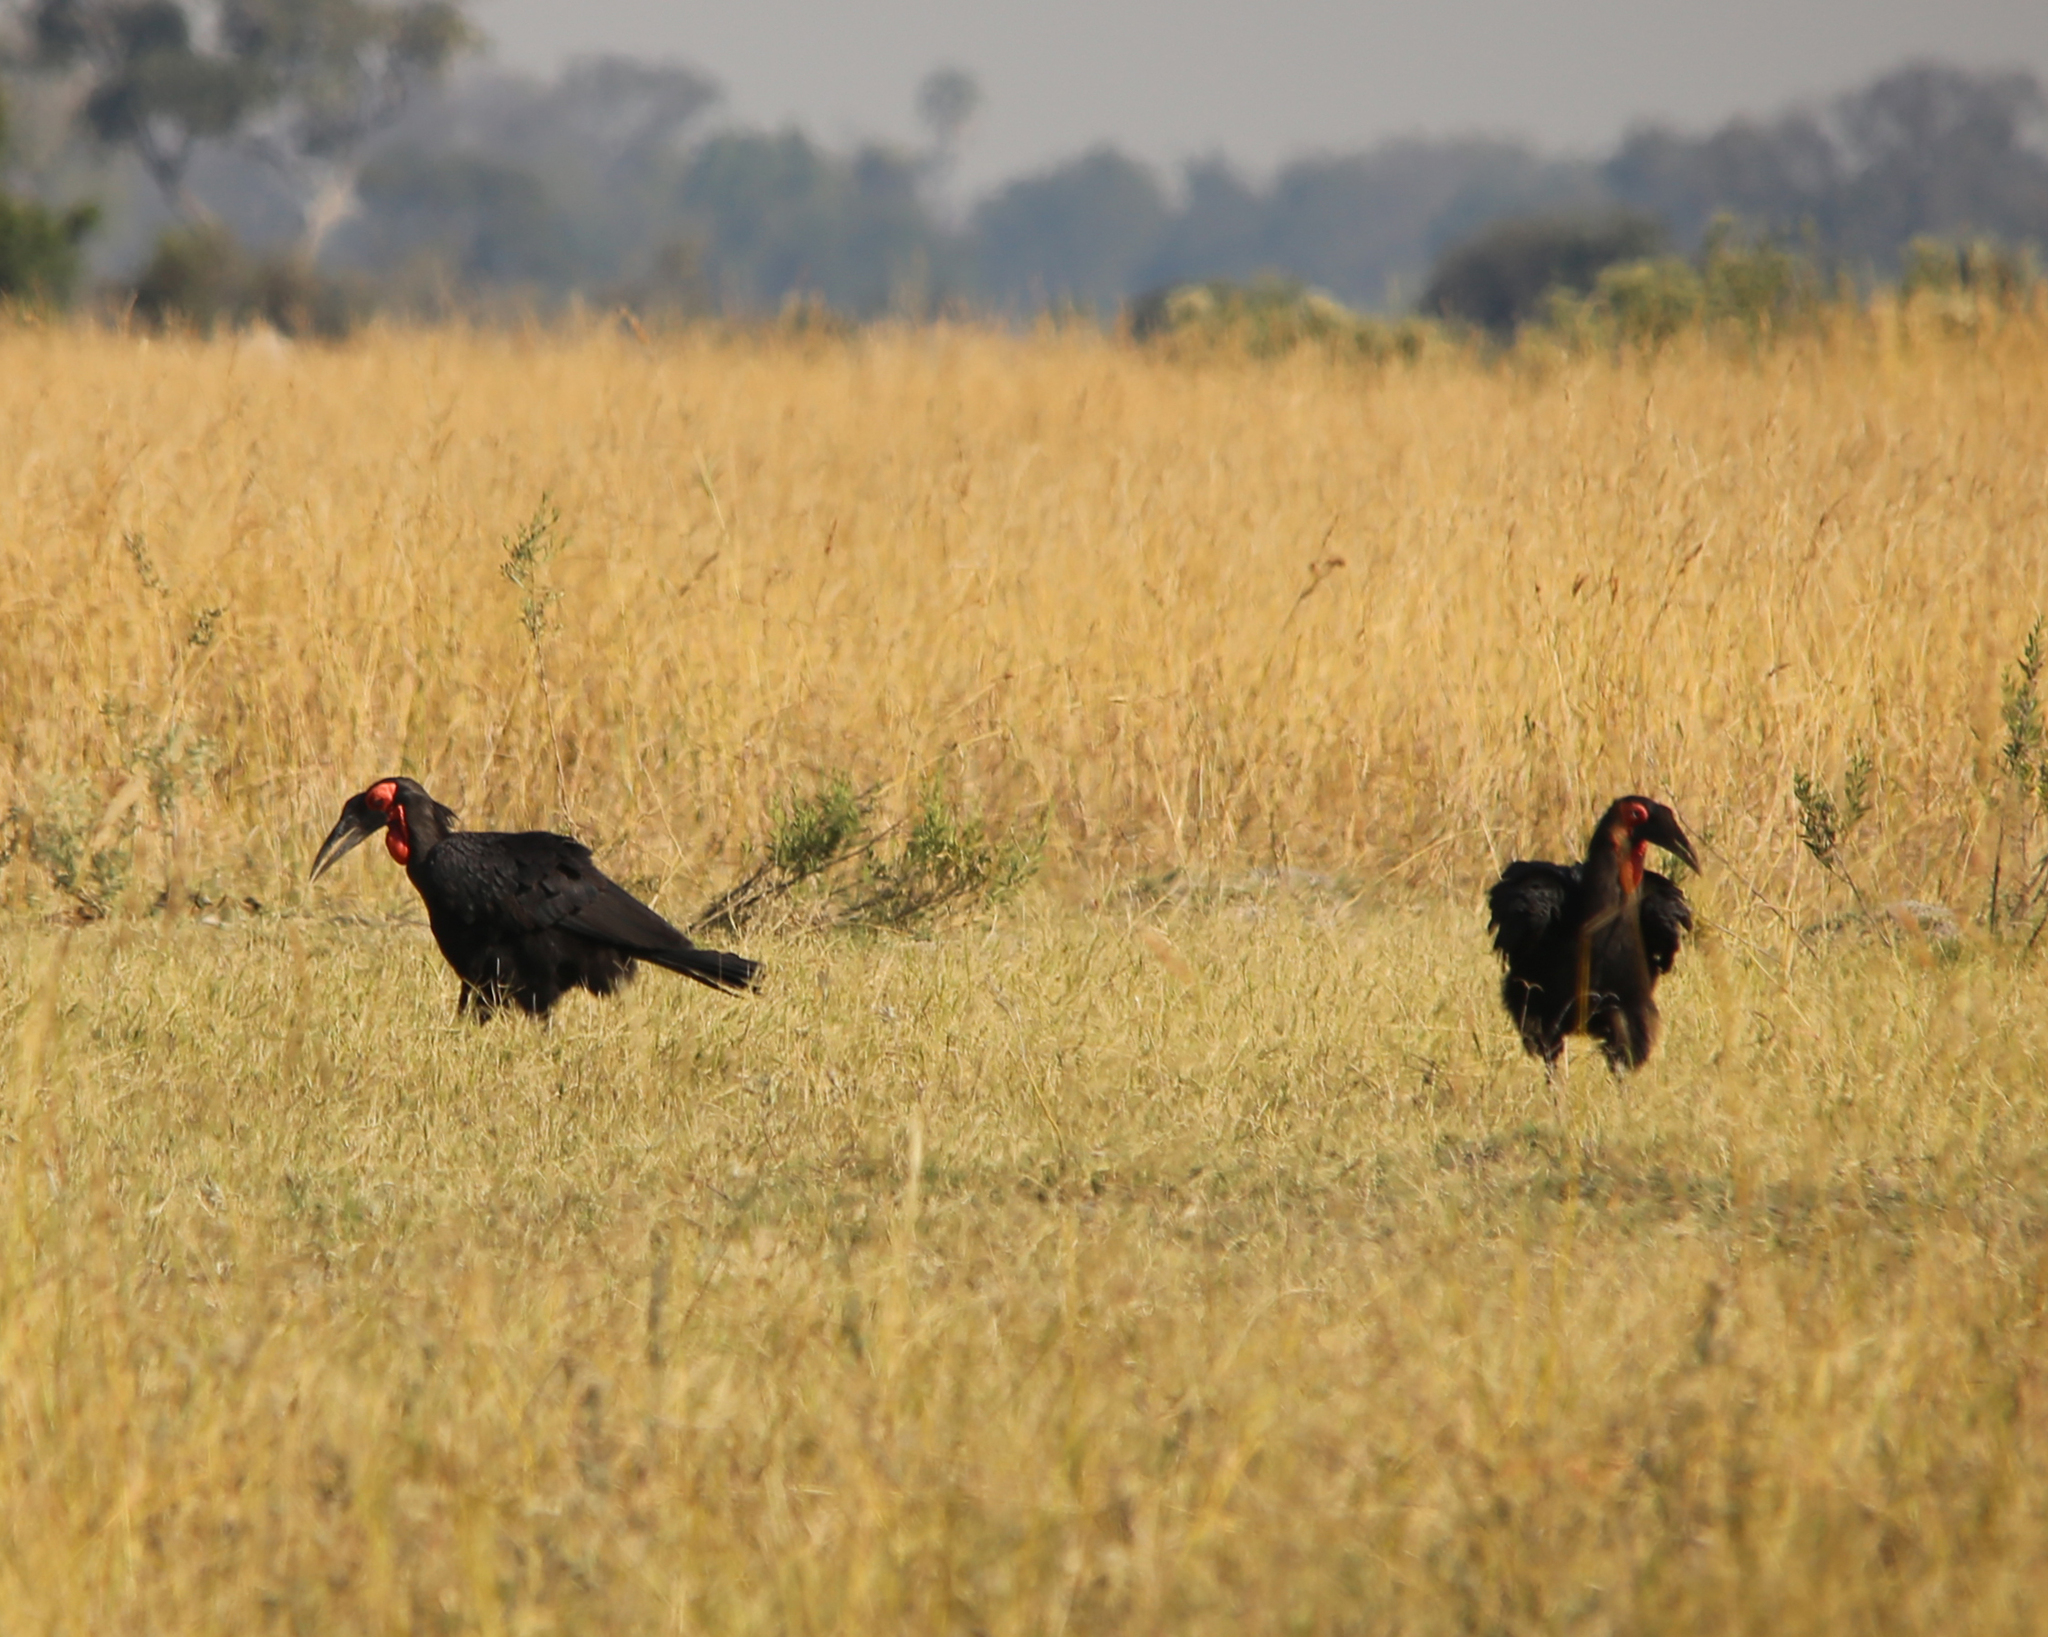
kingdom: Animalia
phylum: Chordata
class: Aves
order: Bucerotiformes
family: Bucorvidae
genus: Bucorvus
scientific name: Bucorvus leadbeateri
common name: Southern ground-hornbill
